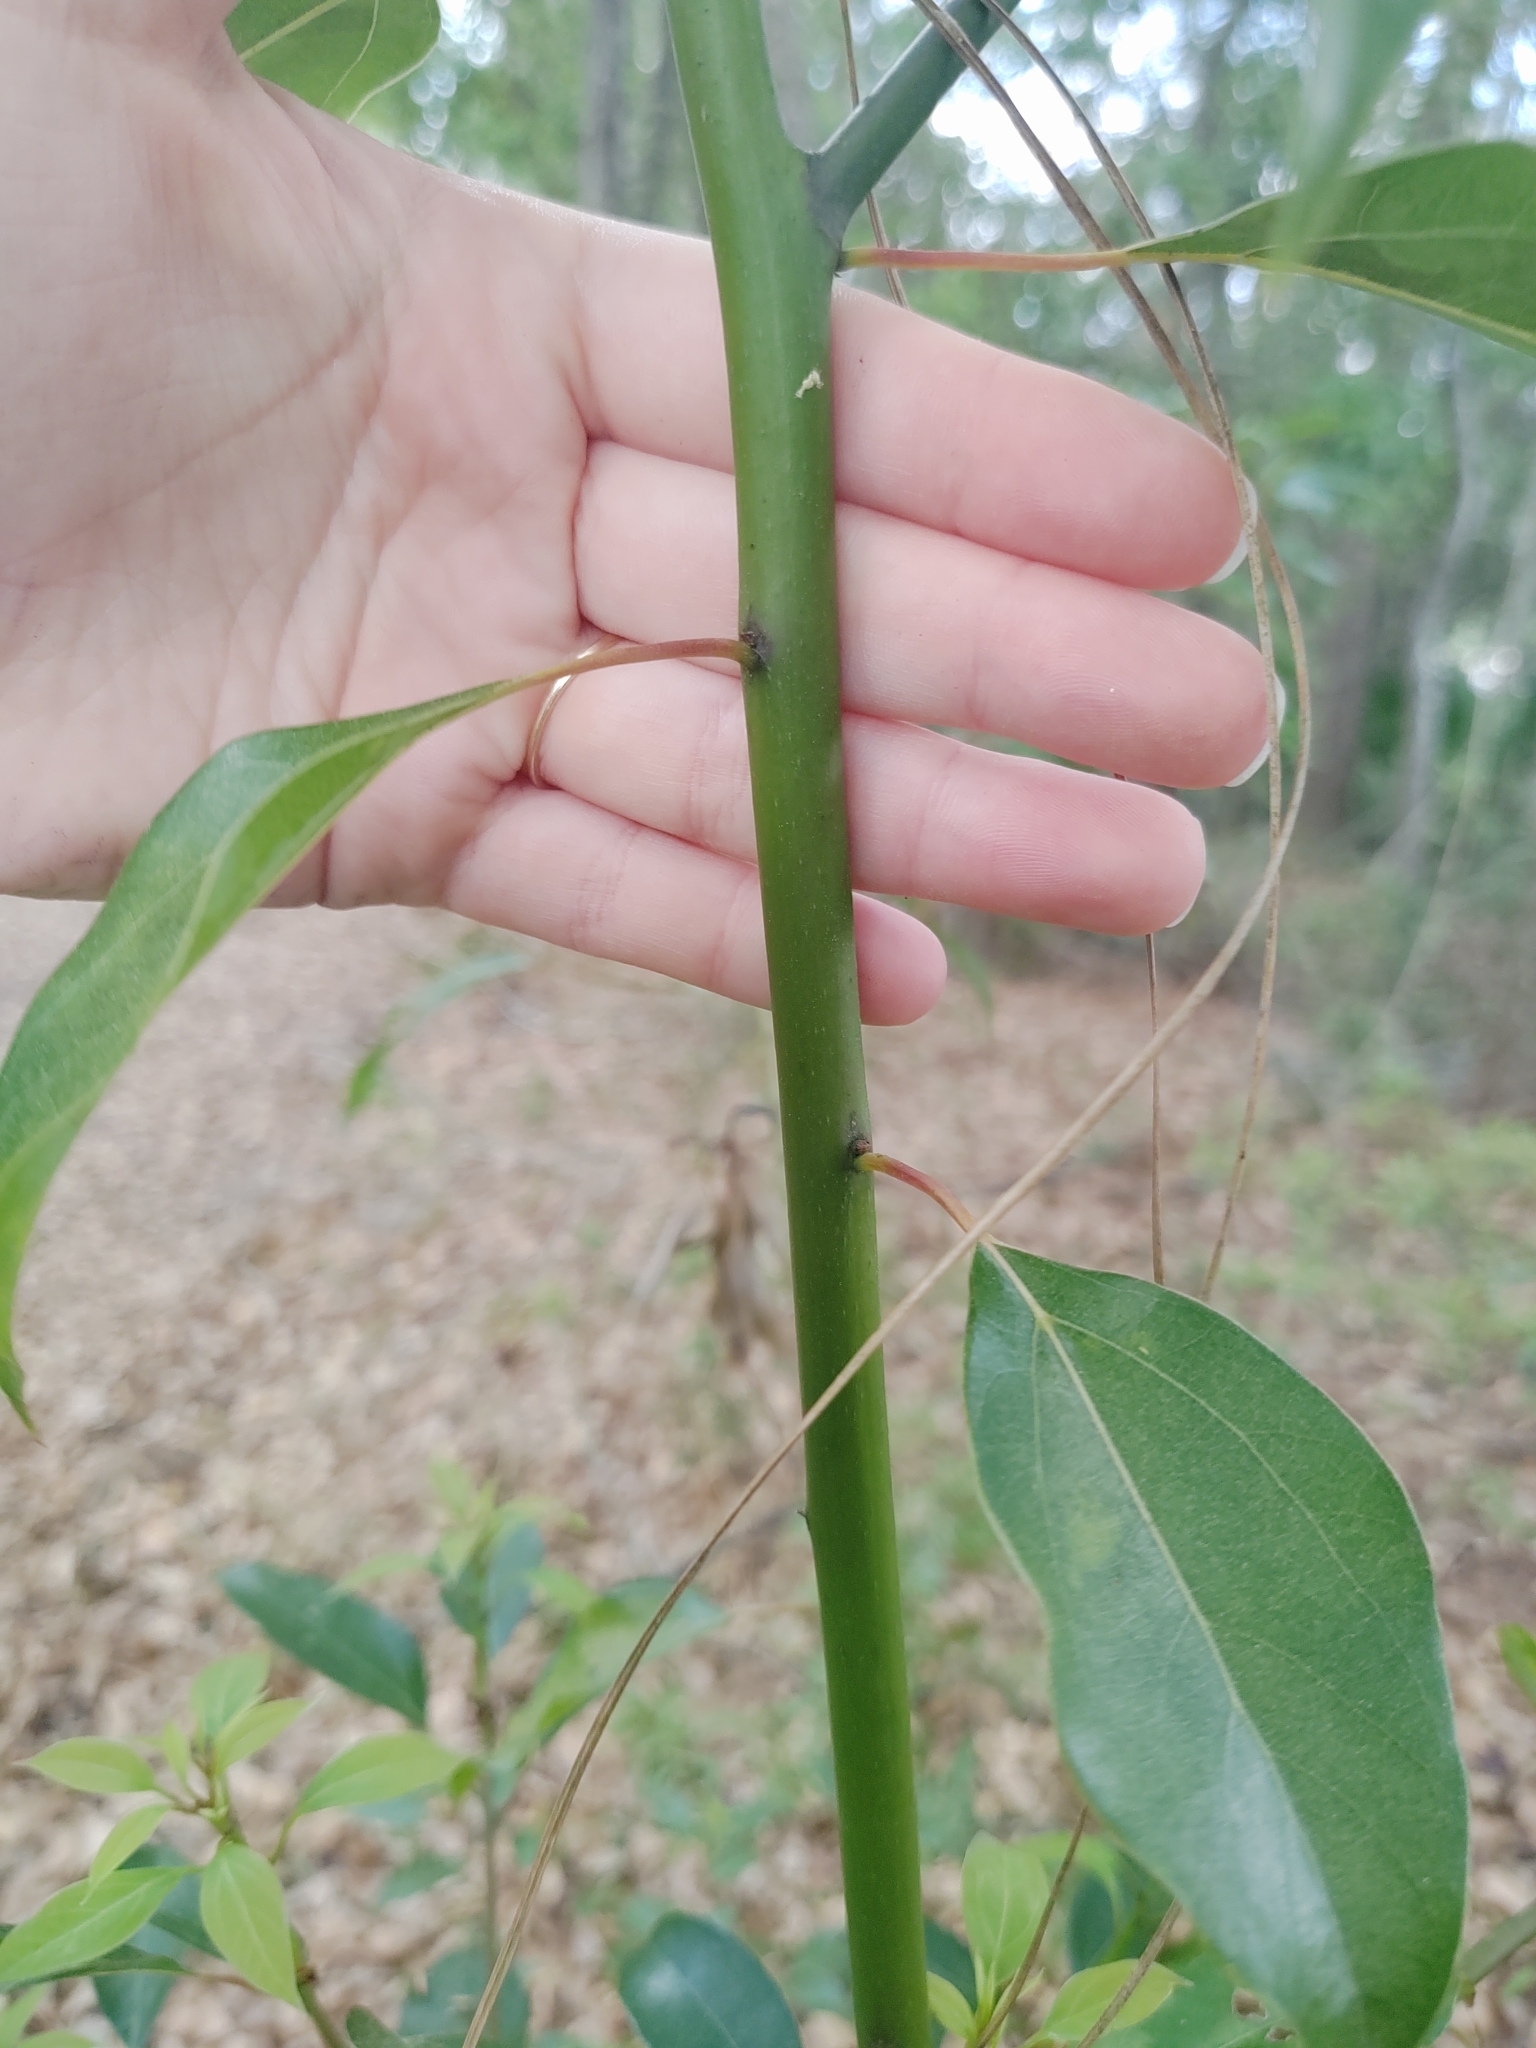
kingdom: Plantae
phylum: Tracheophyta
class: Magnoliopsida
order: Laurales
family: Lauraceae
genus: Cinnamomum
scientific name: Cinnamomum camphora
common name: Camphortree
